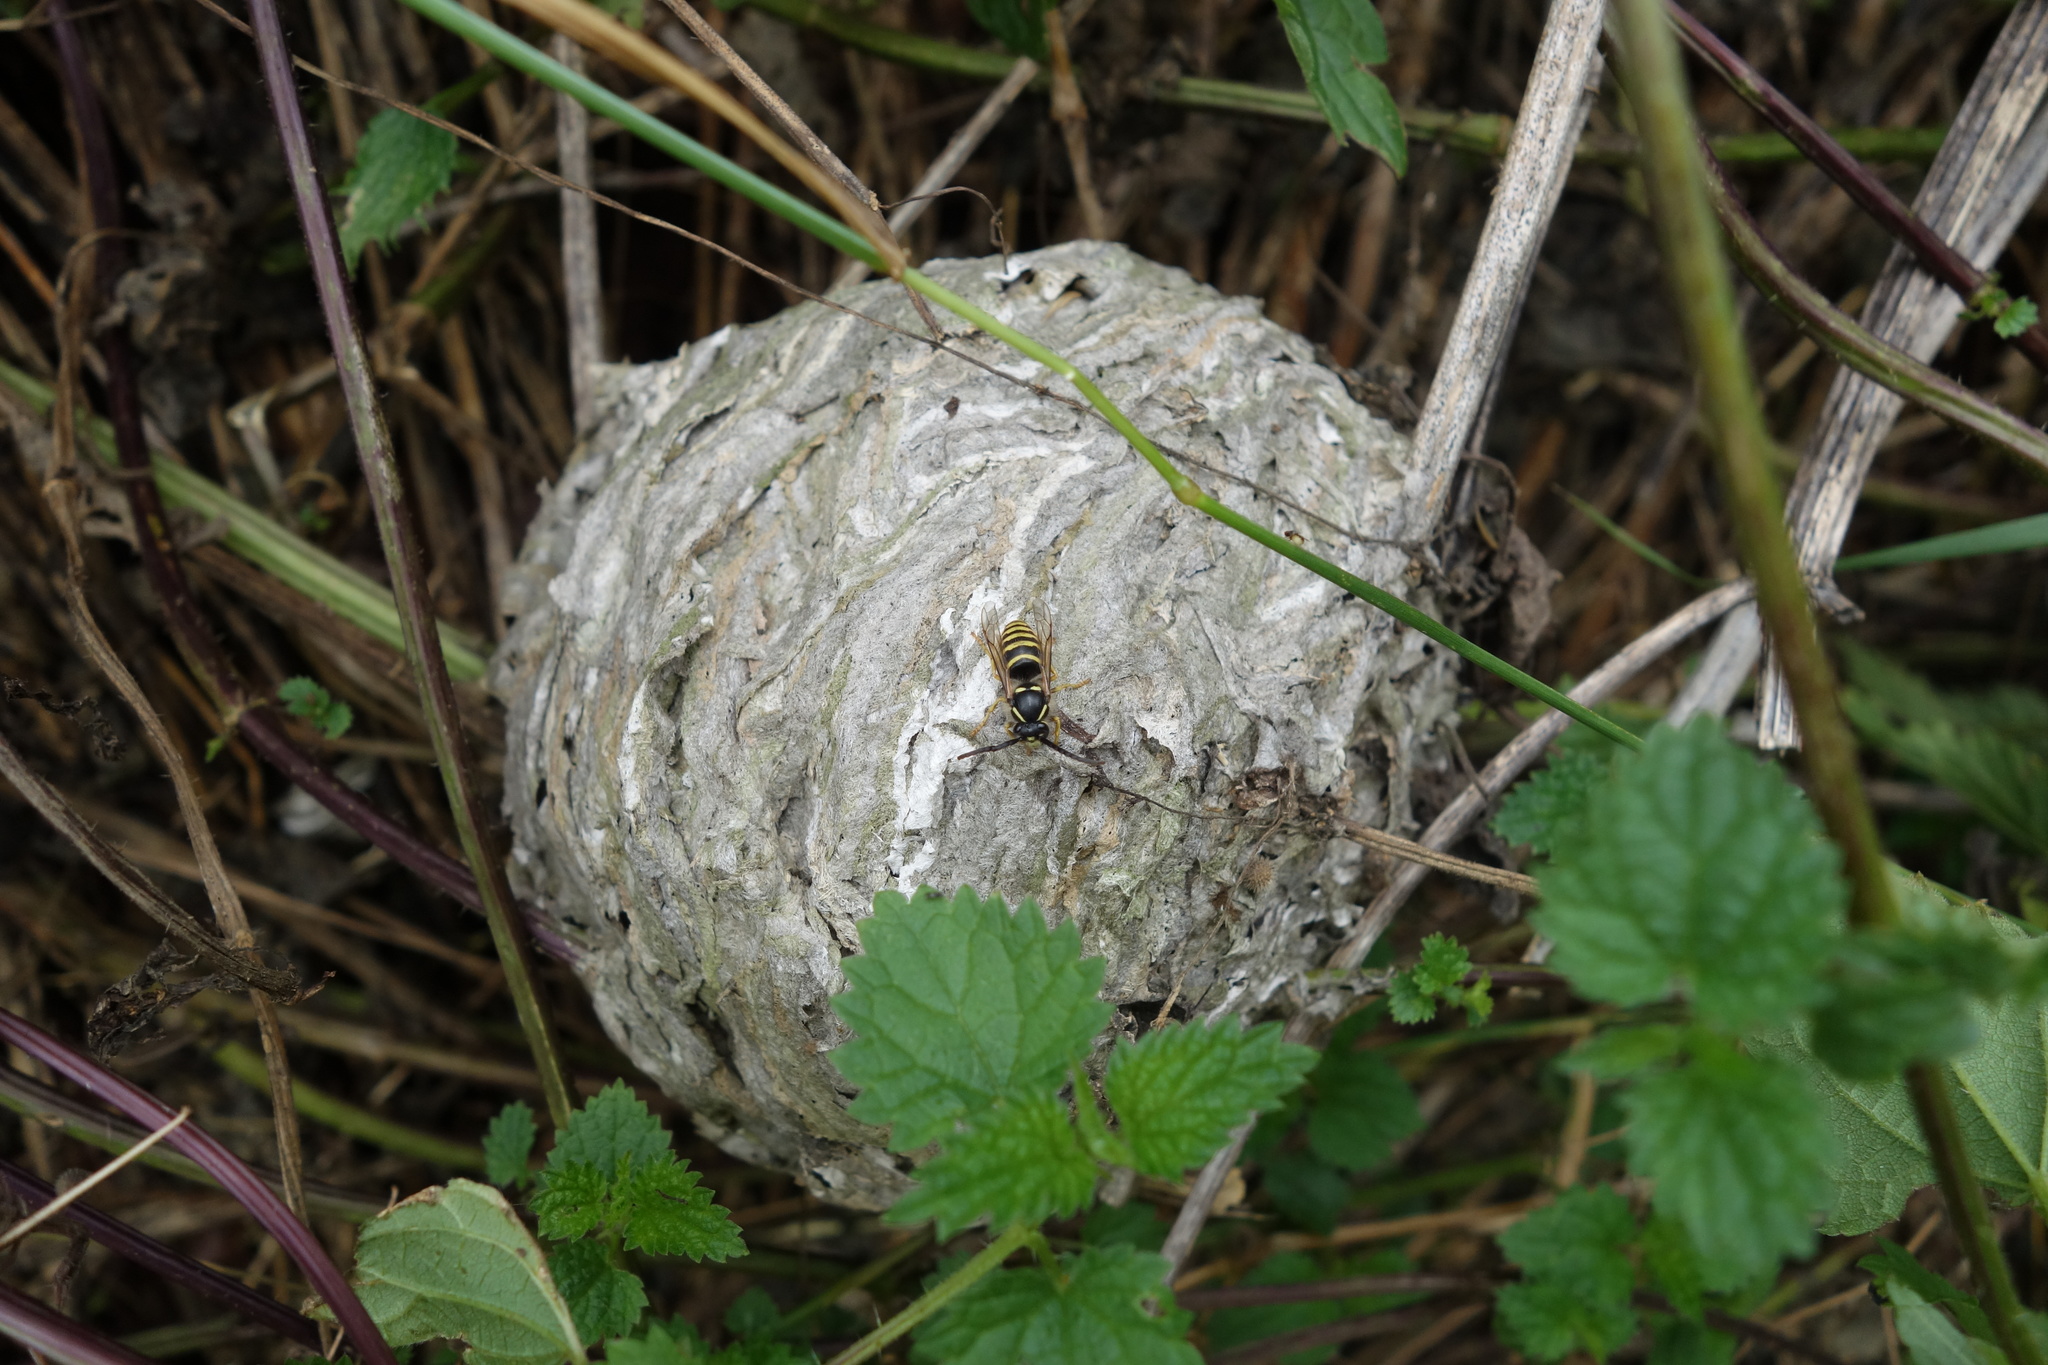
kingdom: Animalia
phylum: Arthropoda
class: Insecta
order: Hymenoptera
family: Vespidae
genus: Dolichovespula
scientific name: Dolichovespula saxonica
